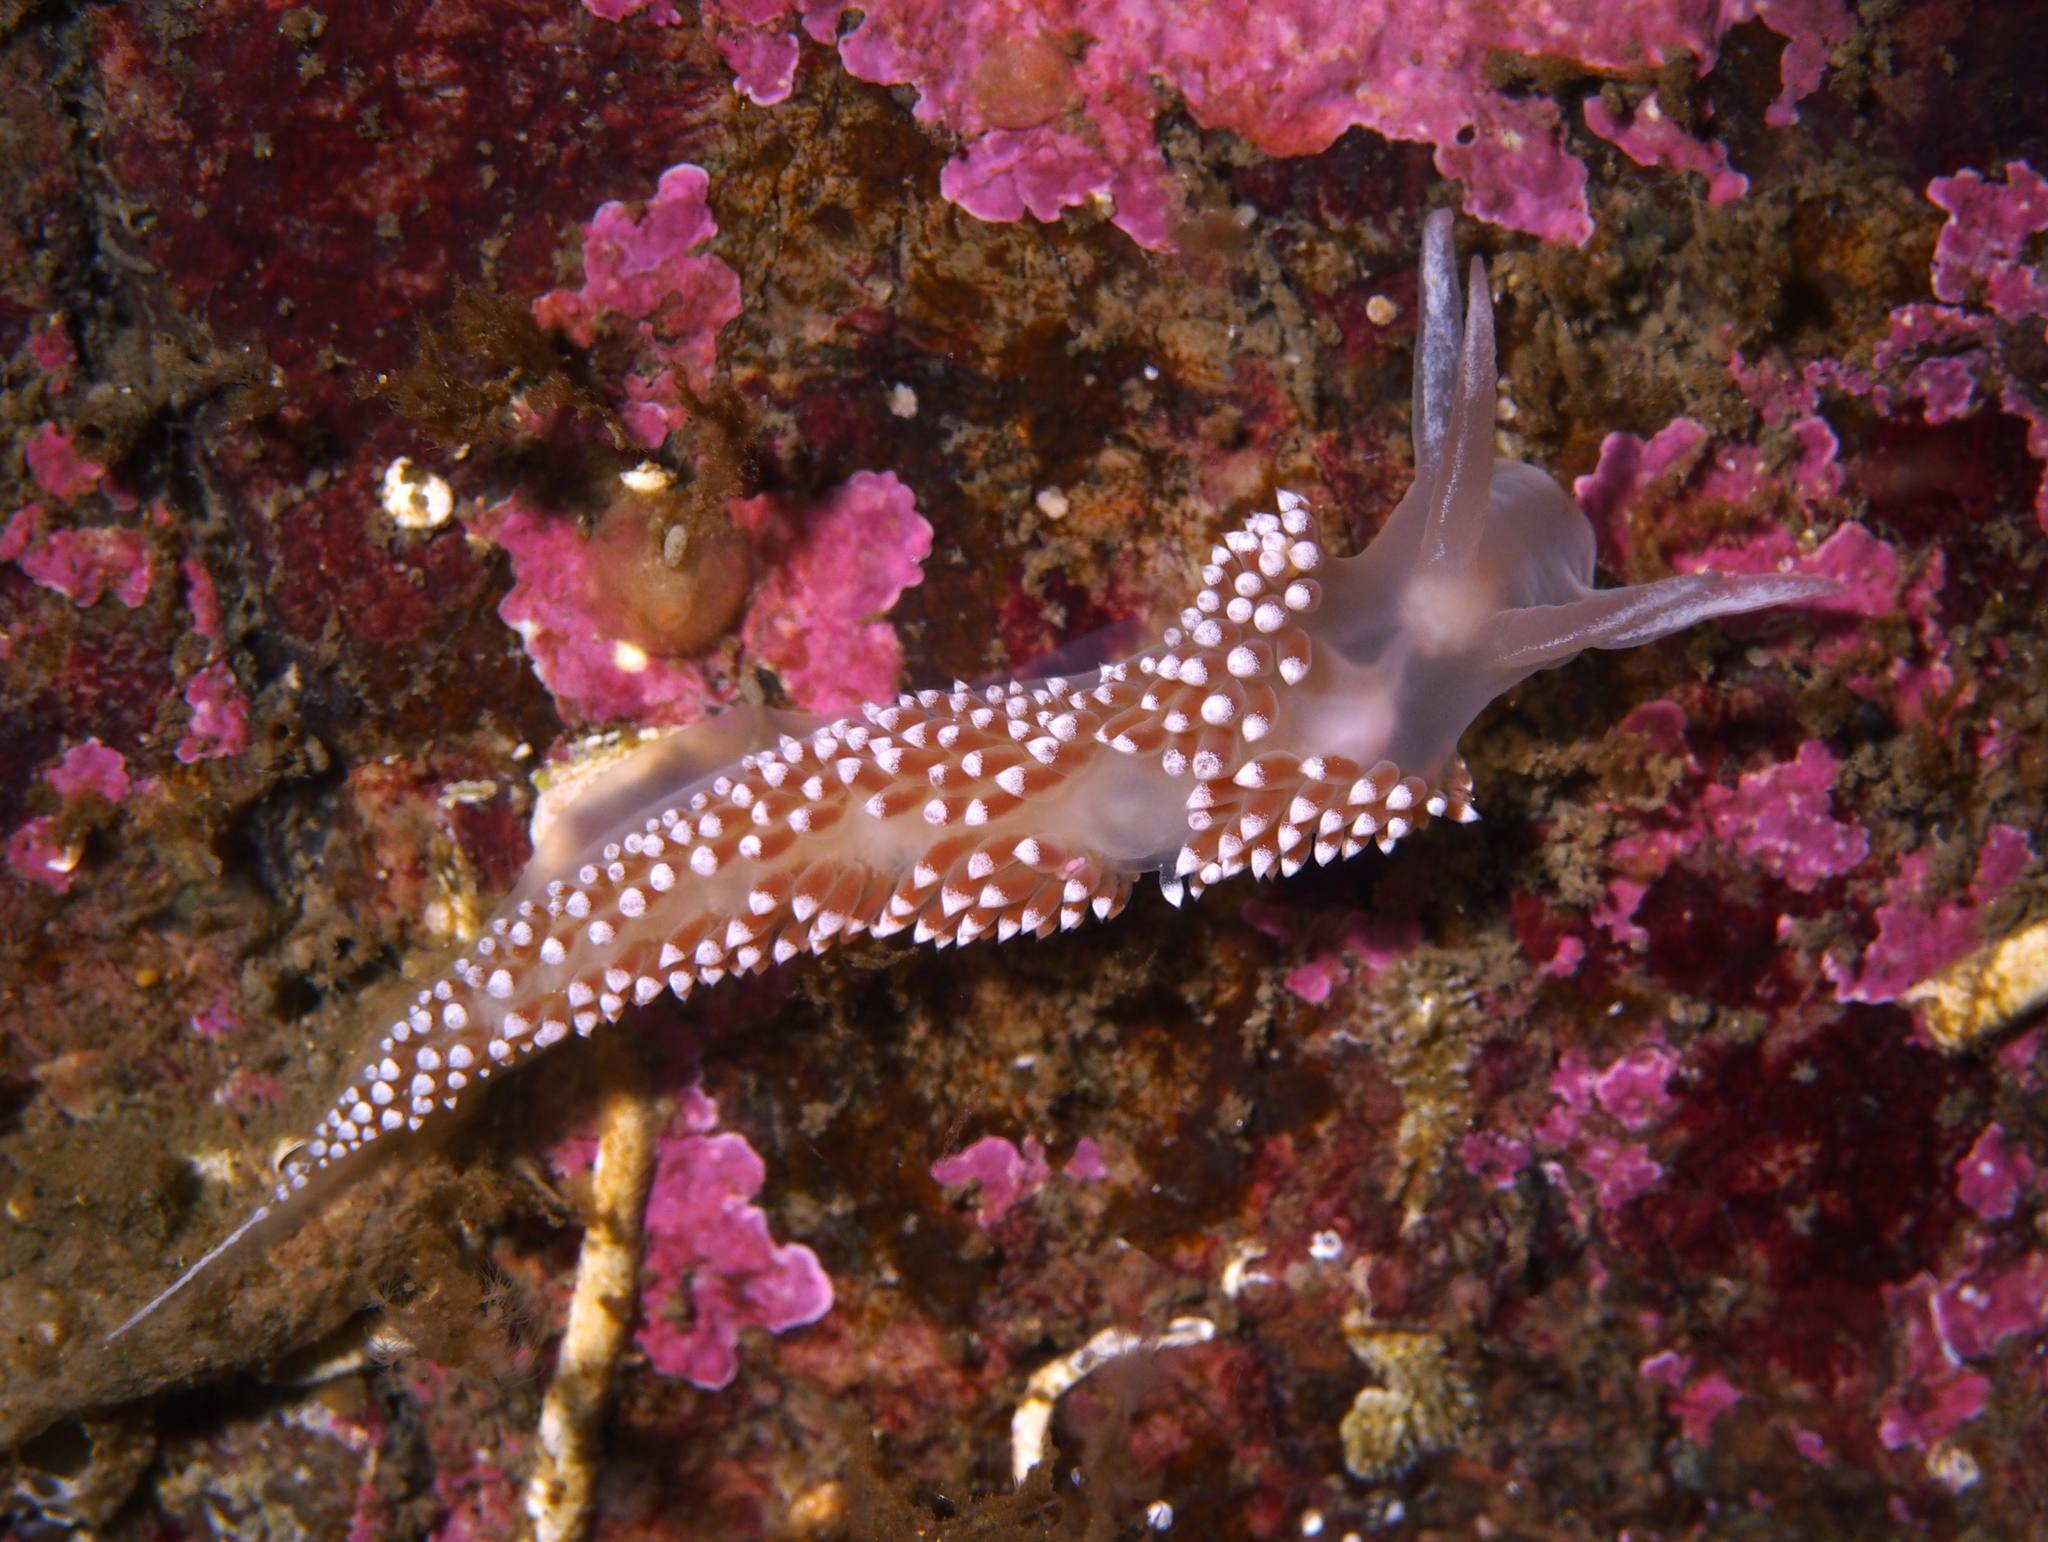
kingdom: Animalia
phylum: Mollusca
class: Gastropoda
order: Nudibranchia
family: Coryphellidae
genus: Coryphella
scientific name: Coryphella verrucosa
